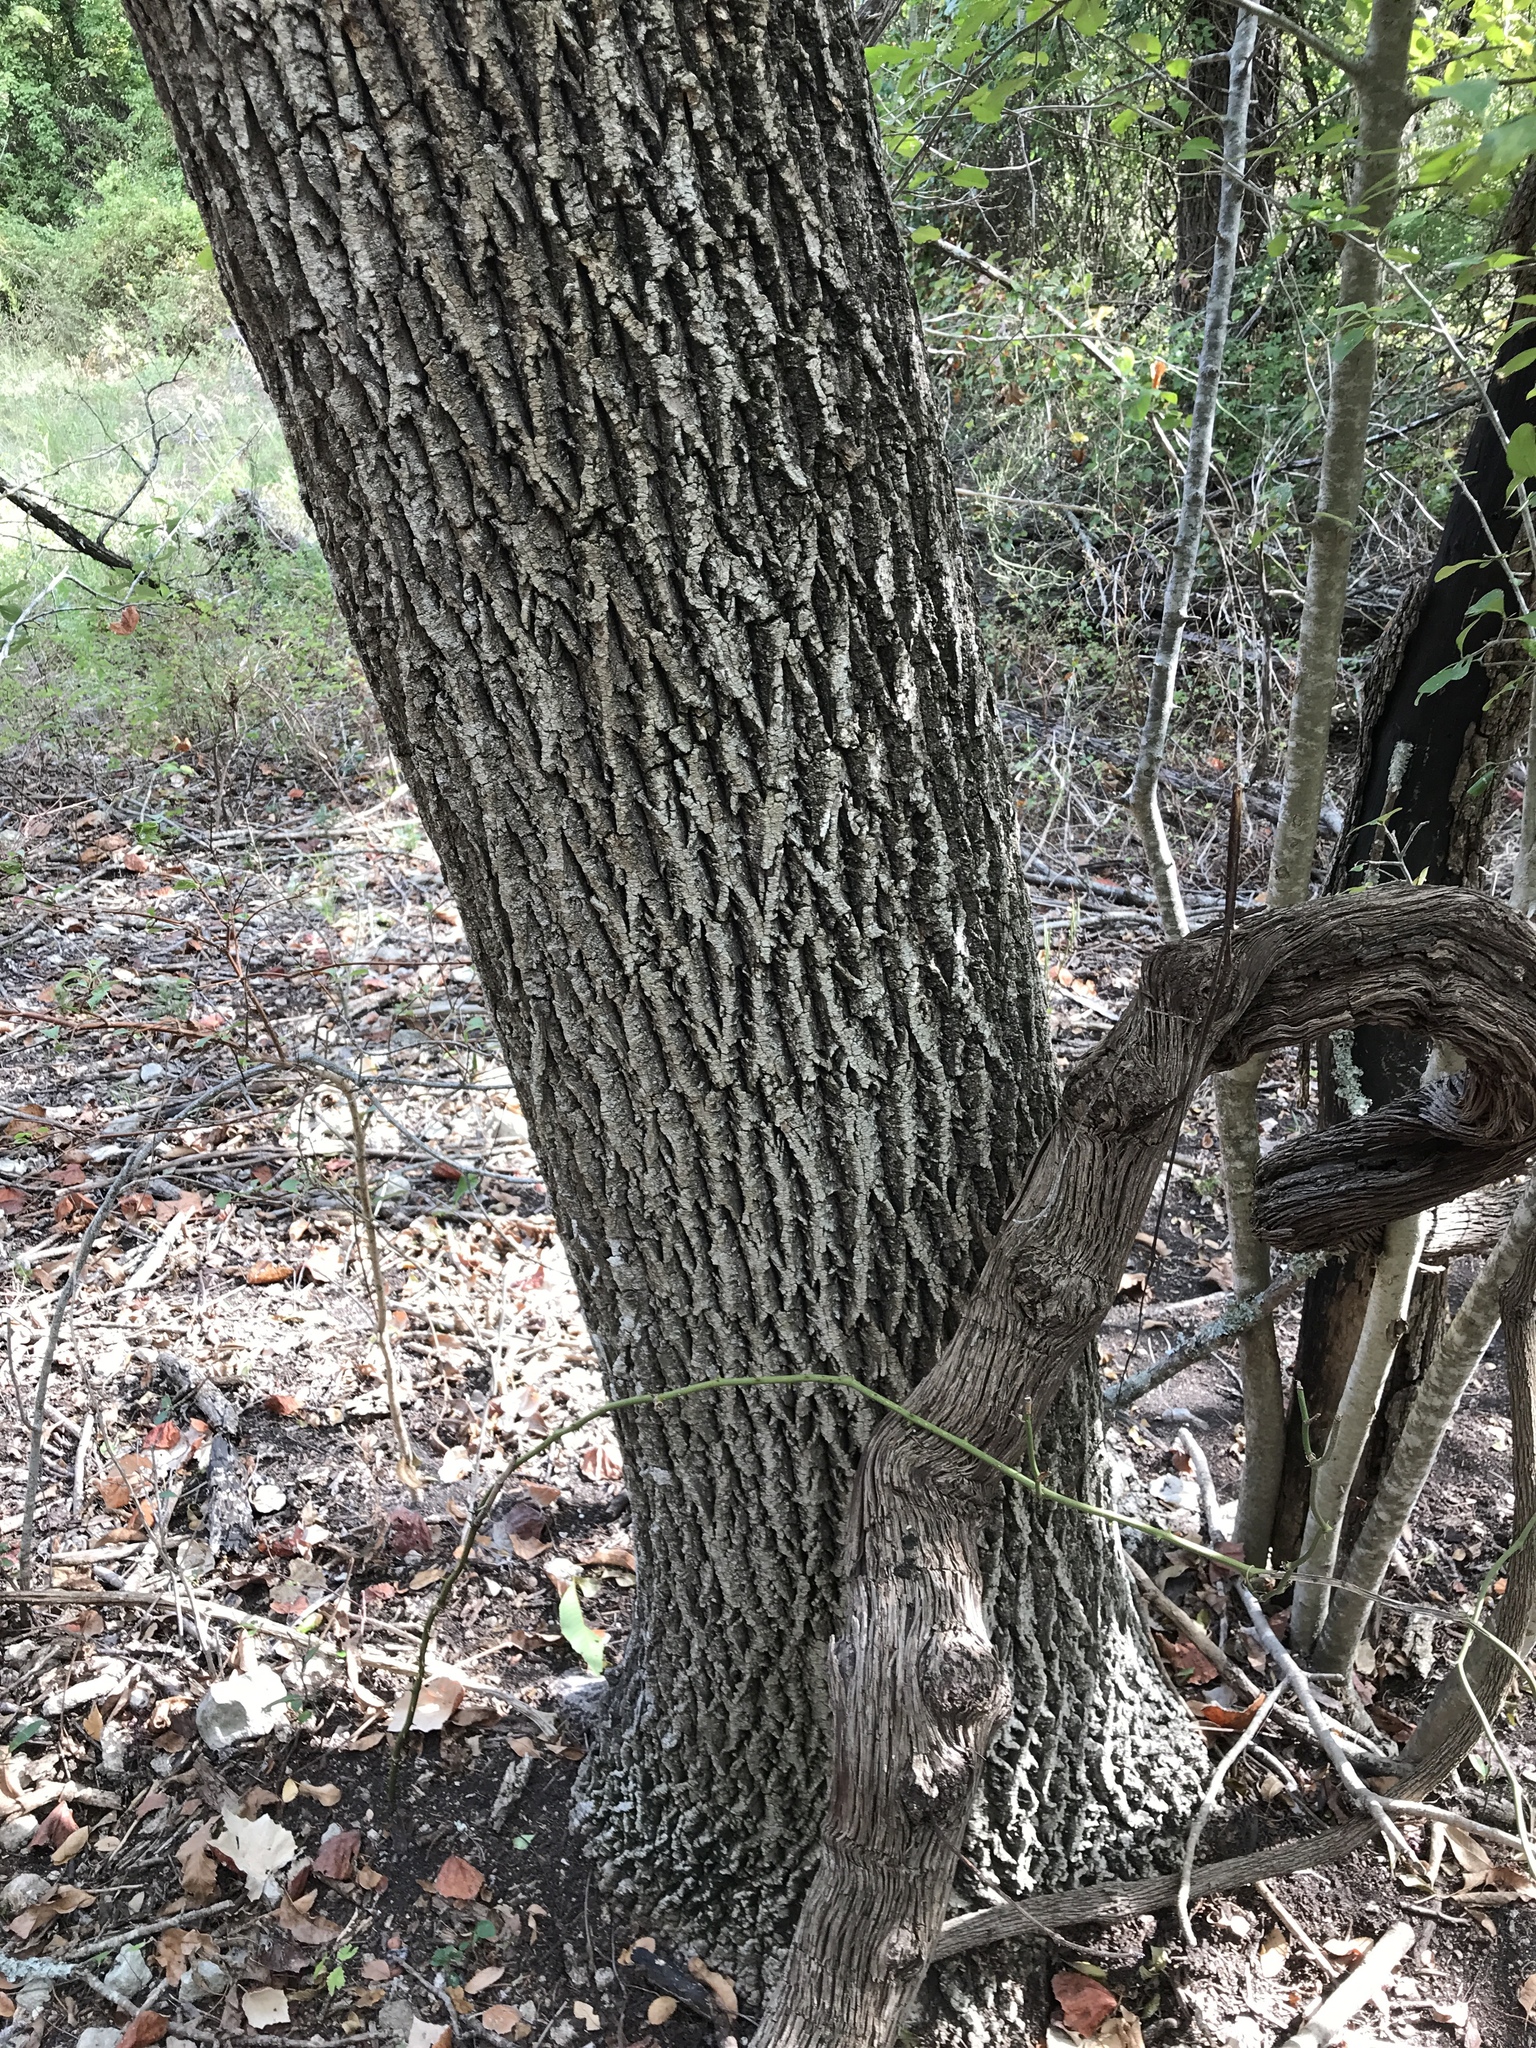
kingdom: Plantae
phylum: Tracheophyta
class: Magnoliopsida
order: Lamiales
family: Oleaceae
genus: Fraxinus
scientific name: Fraxinus albicans
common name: Texas ash
